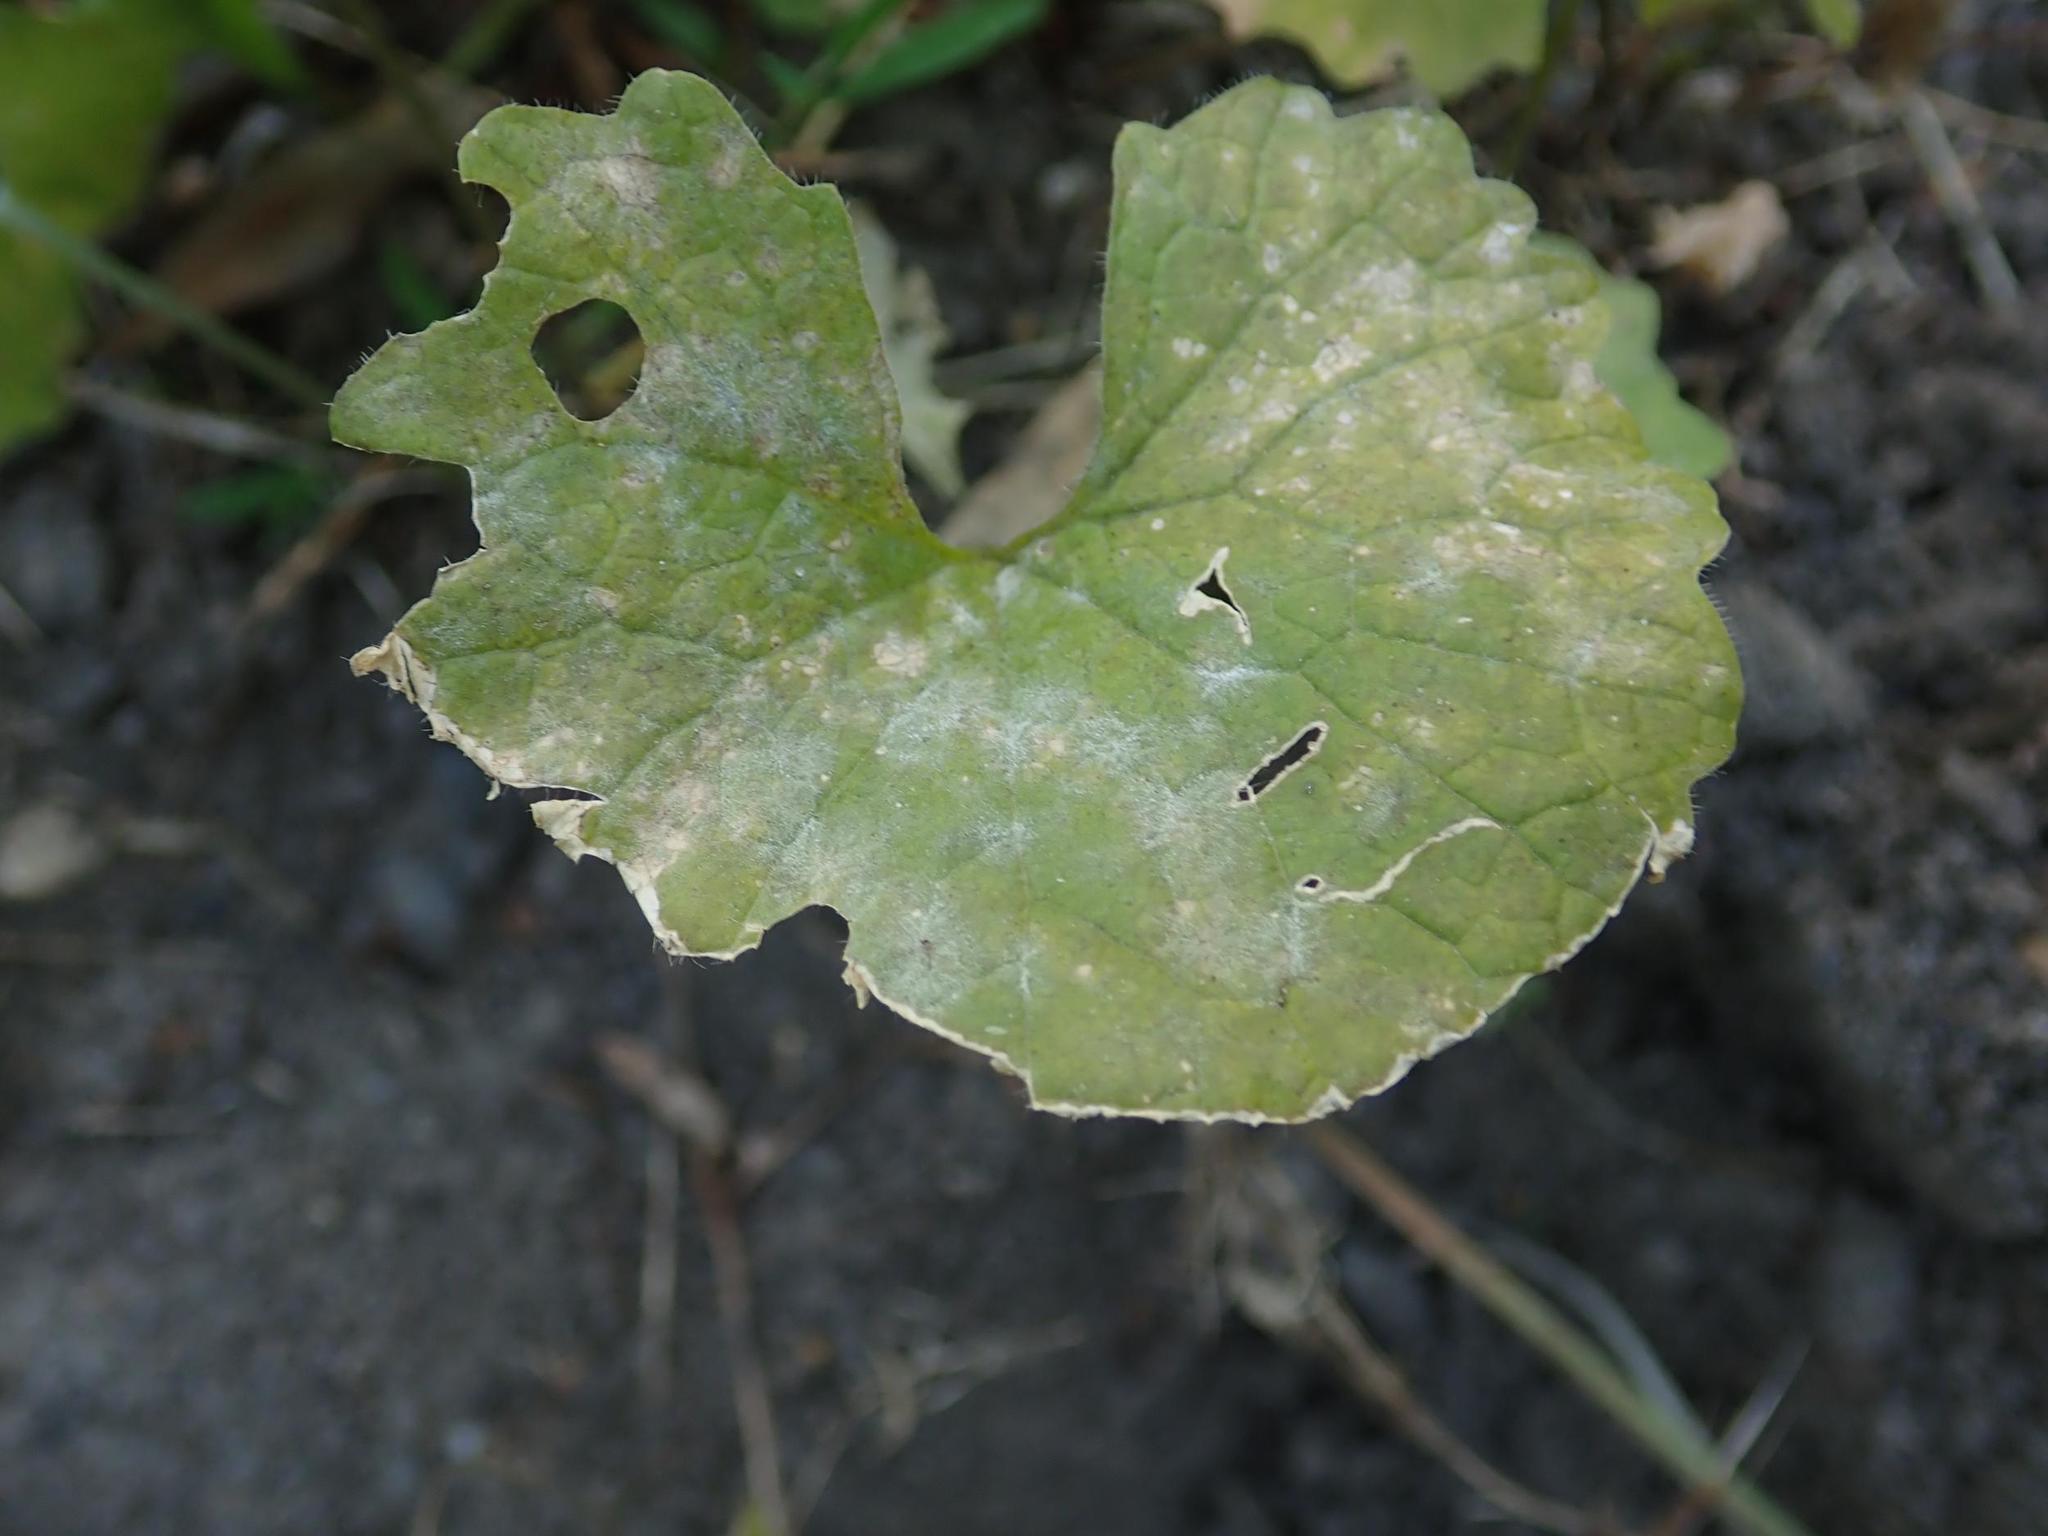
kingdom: Fungi
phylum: Ascomycota
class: Leotiomycetes
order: Helotiales
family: Erysiphaceae
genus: Erysiphe
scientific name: Erysiphe cruciferarum
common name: Brassica powdery mildew
